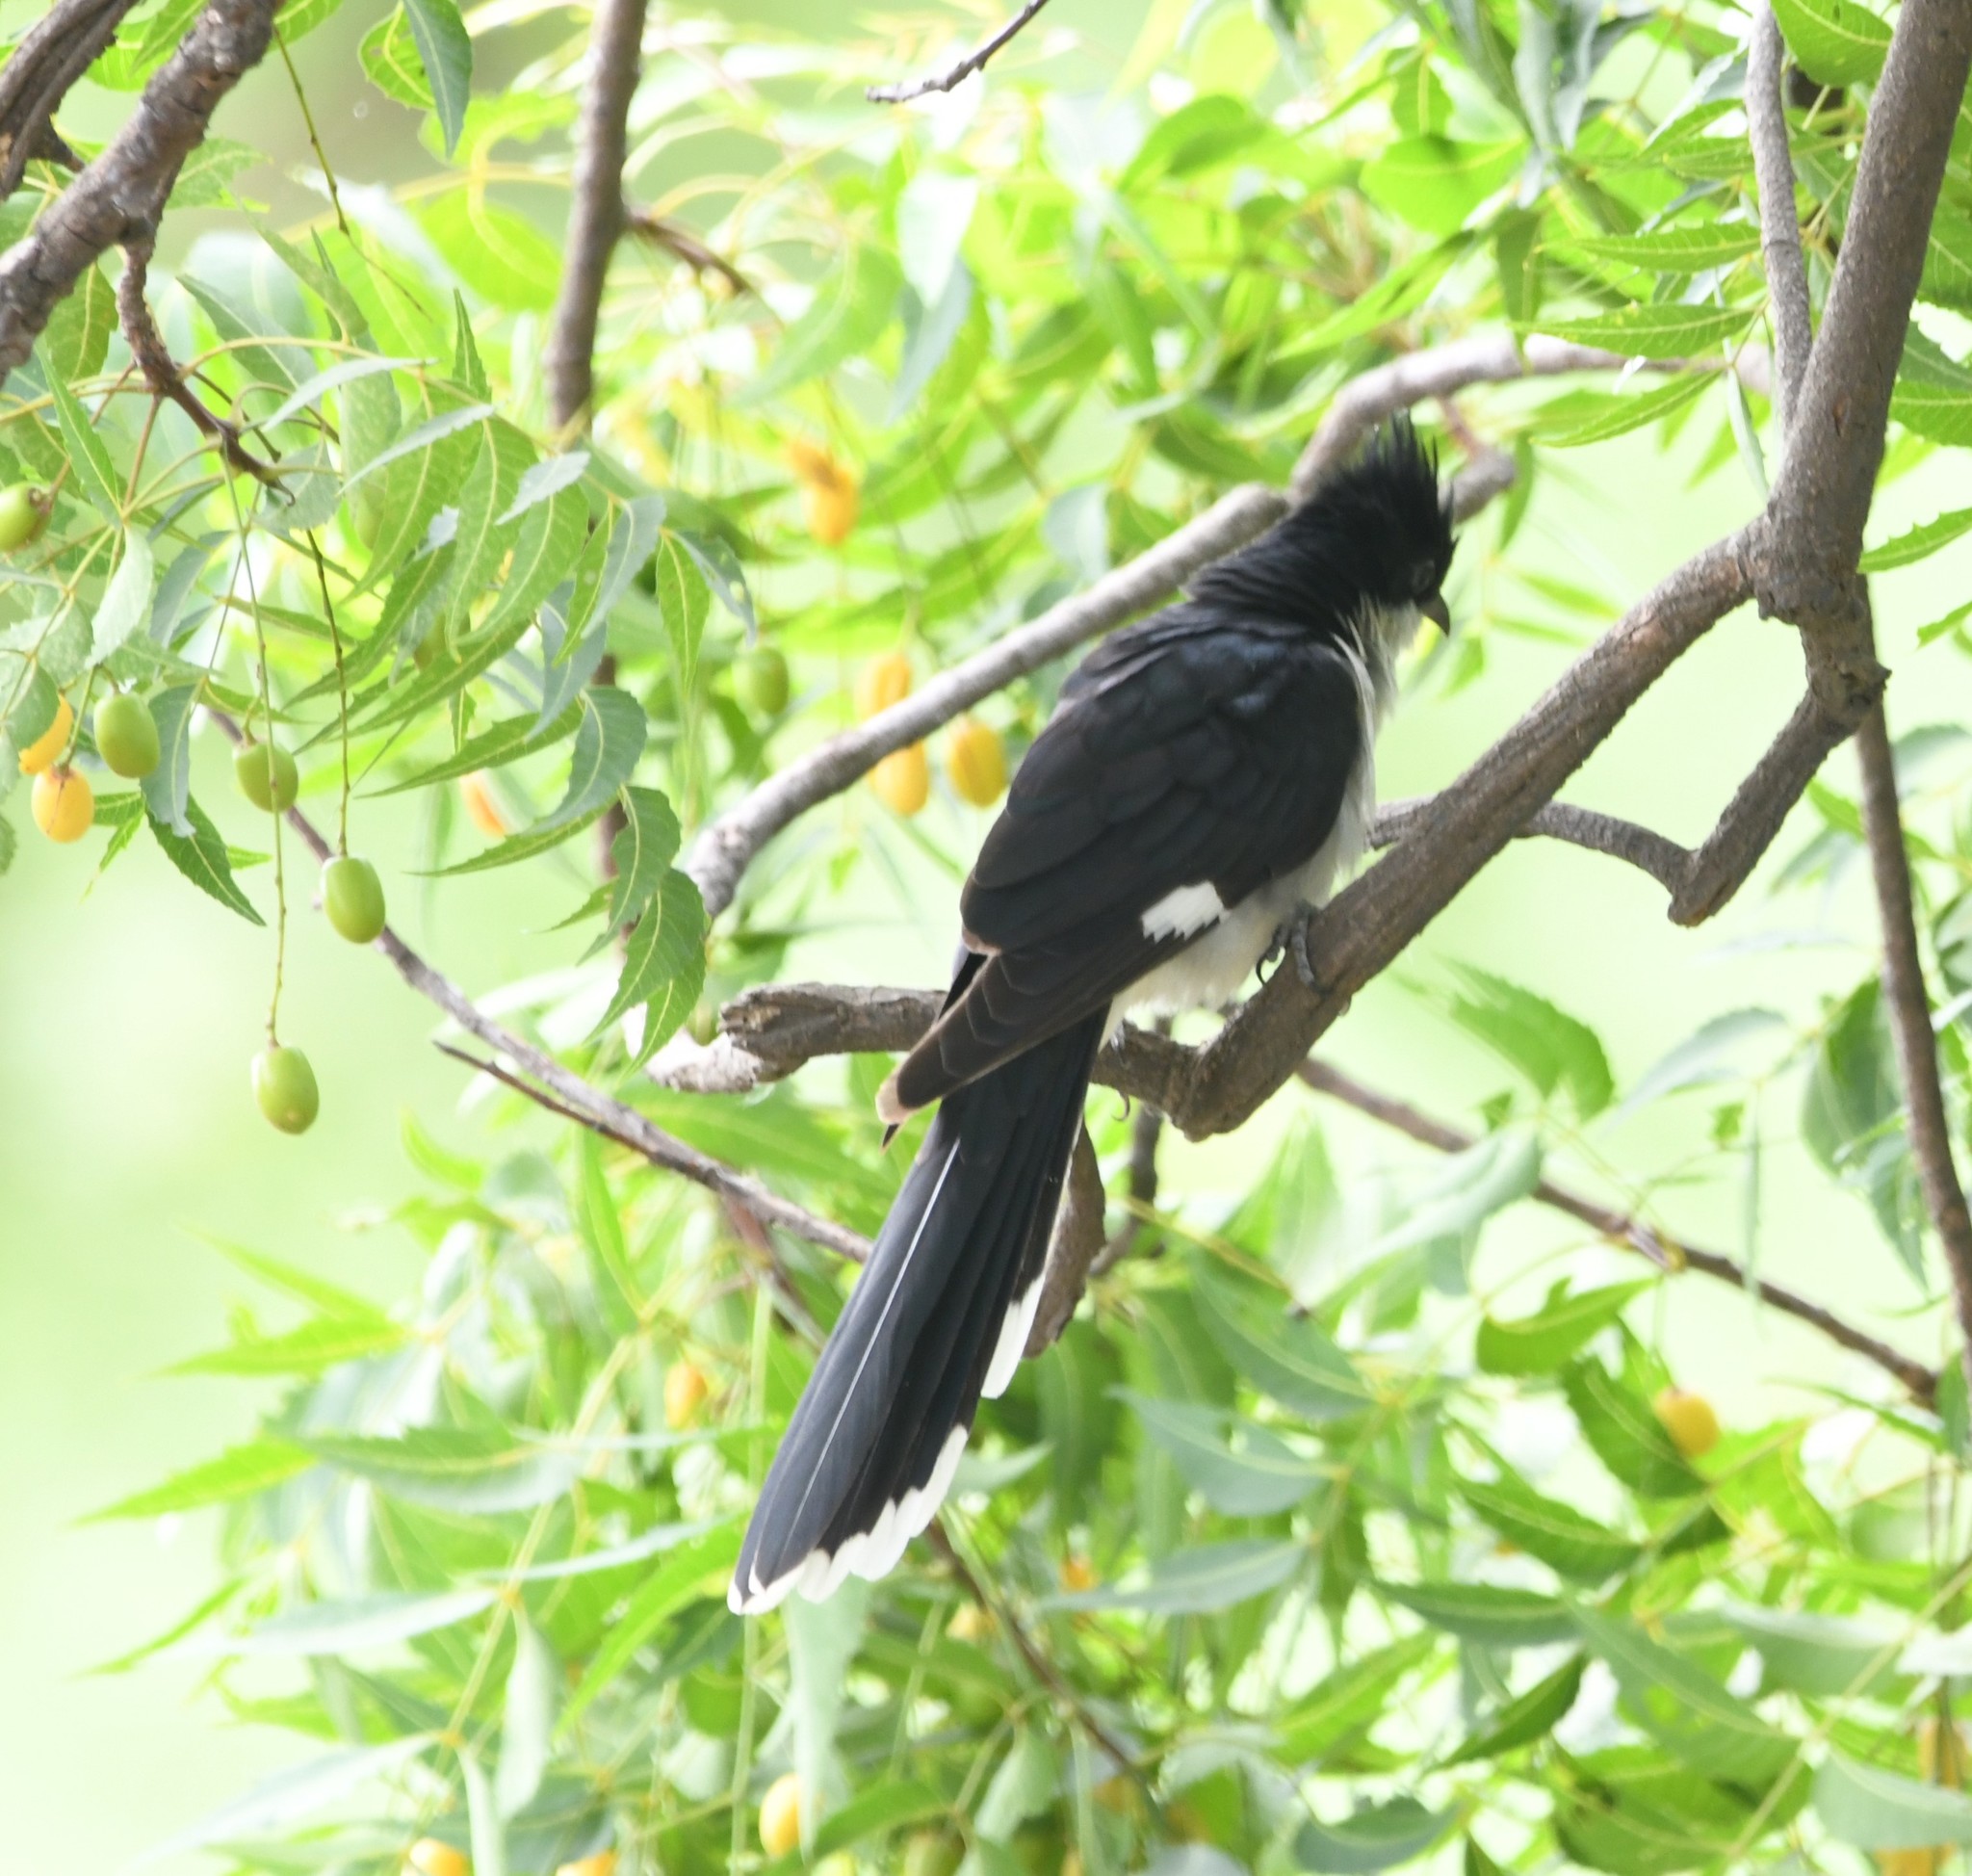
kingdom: Animalia
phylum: Chordata
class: Aves
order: Cuculiformes
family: Cuculidae
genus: Clamator
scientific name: Clamator jacobinus
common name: Jacobin cuckoo
